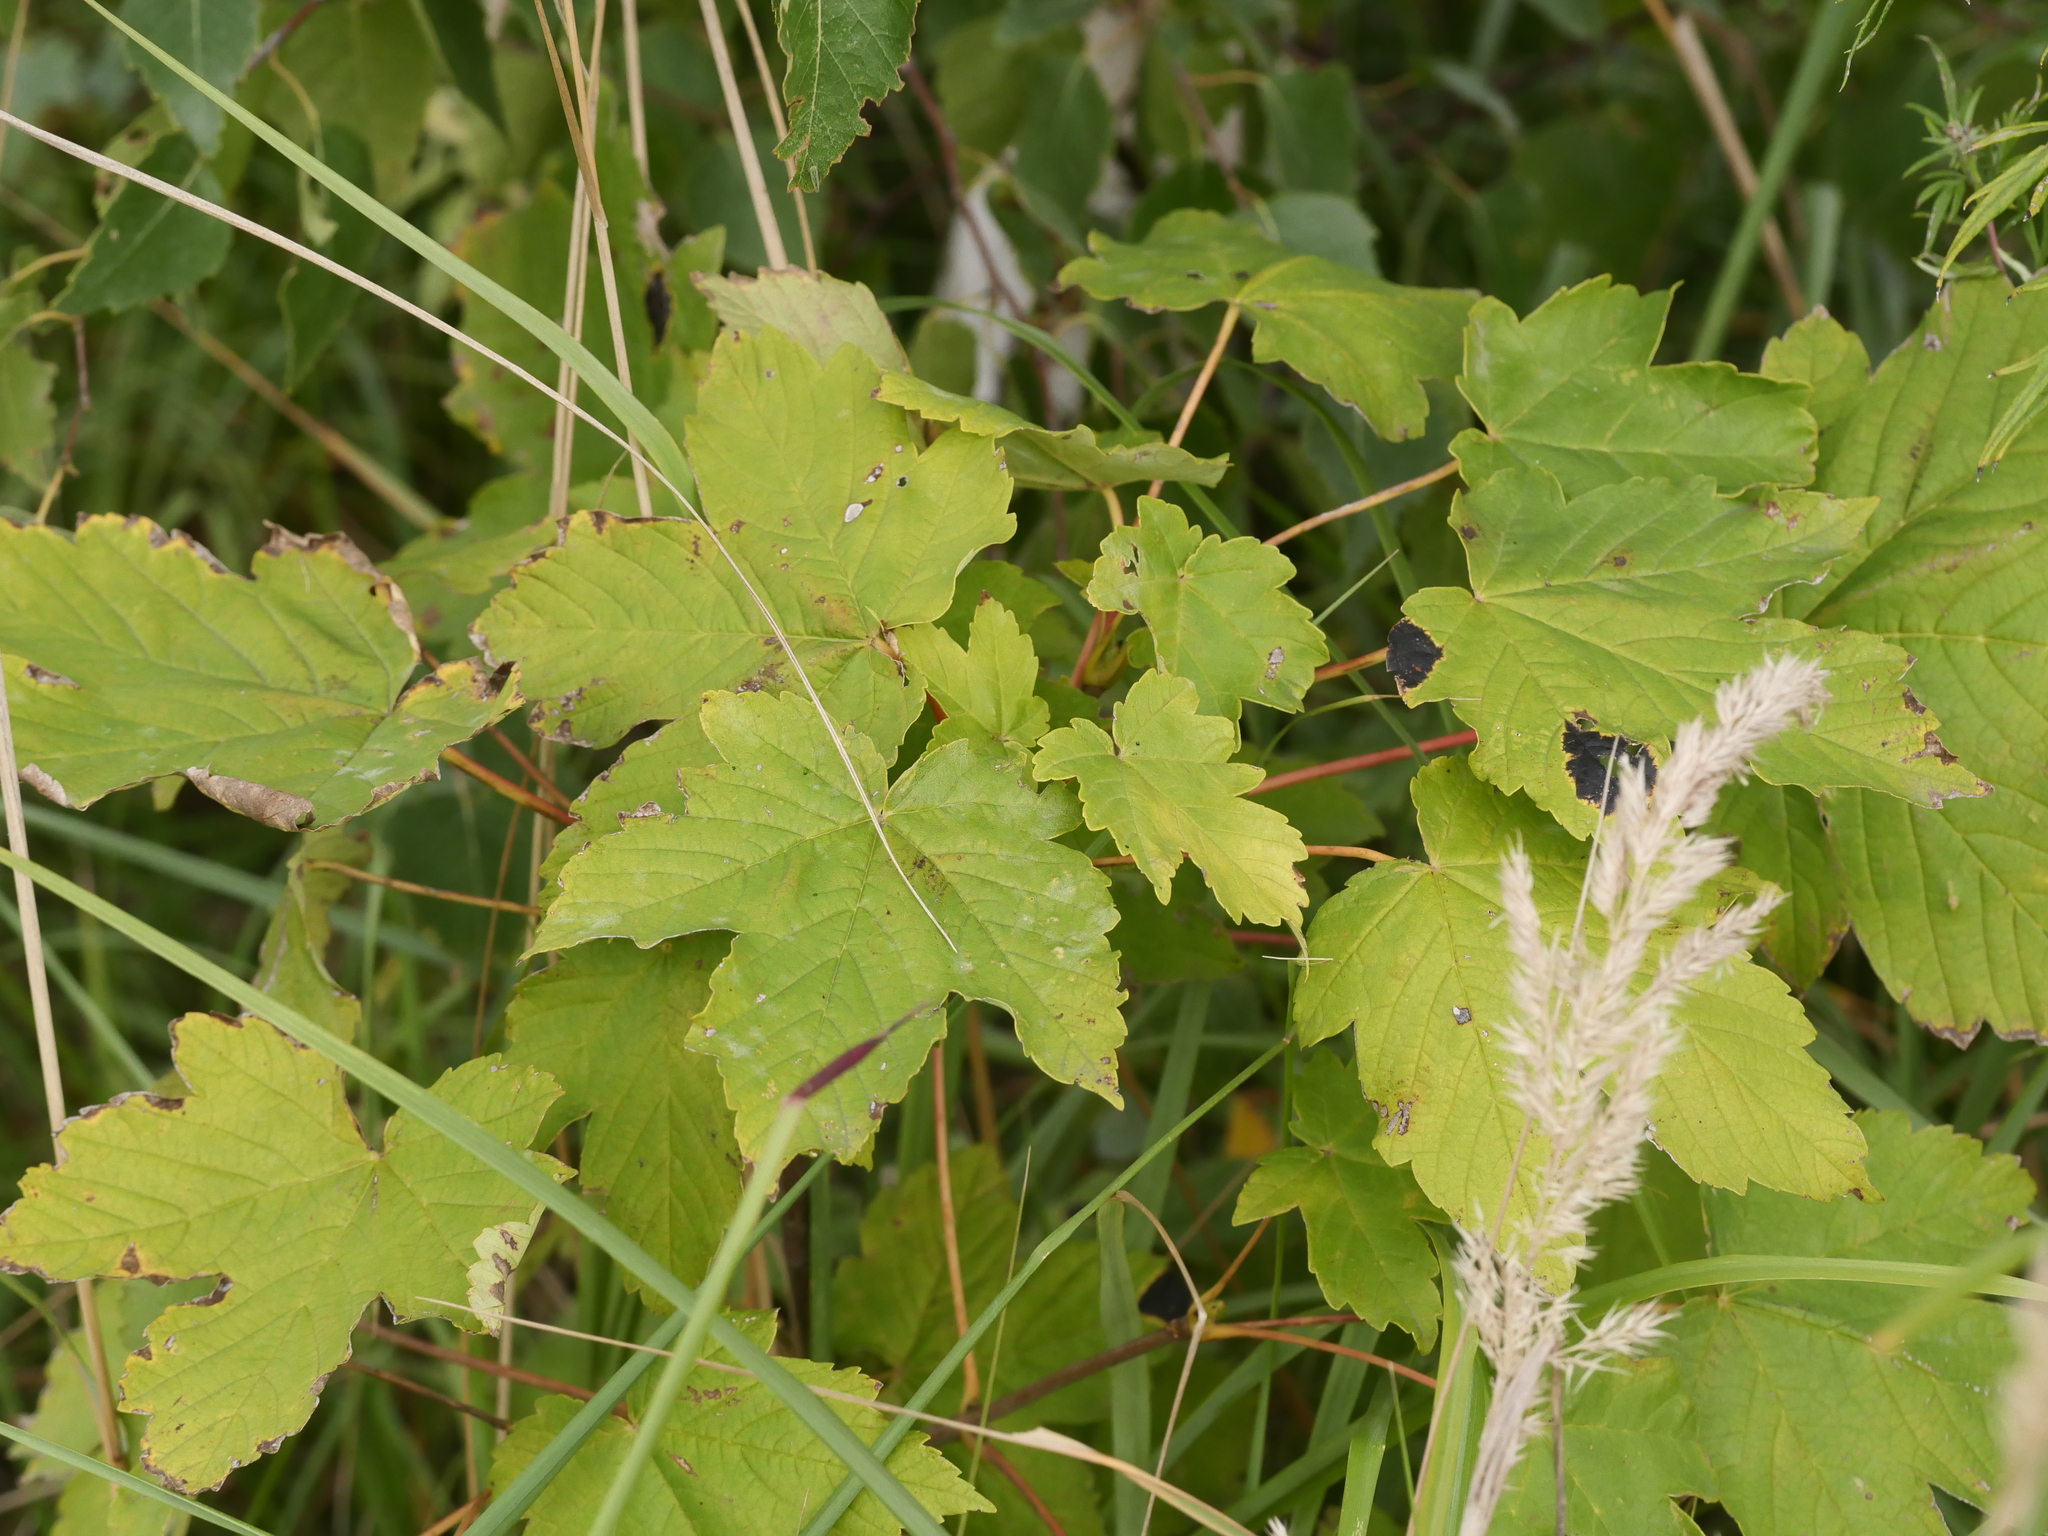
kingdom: Plantae
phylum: Tracheophyta
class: Magnoliopsida
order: Sapindales
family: Sapindaceae
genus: Acer
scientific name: Acer pseudoplatanus
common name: Sycamore
